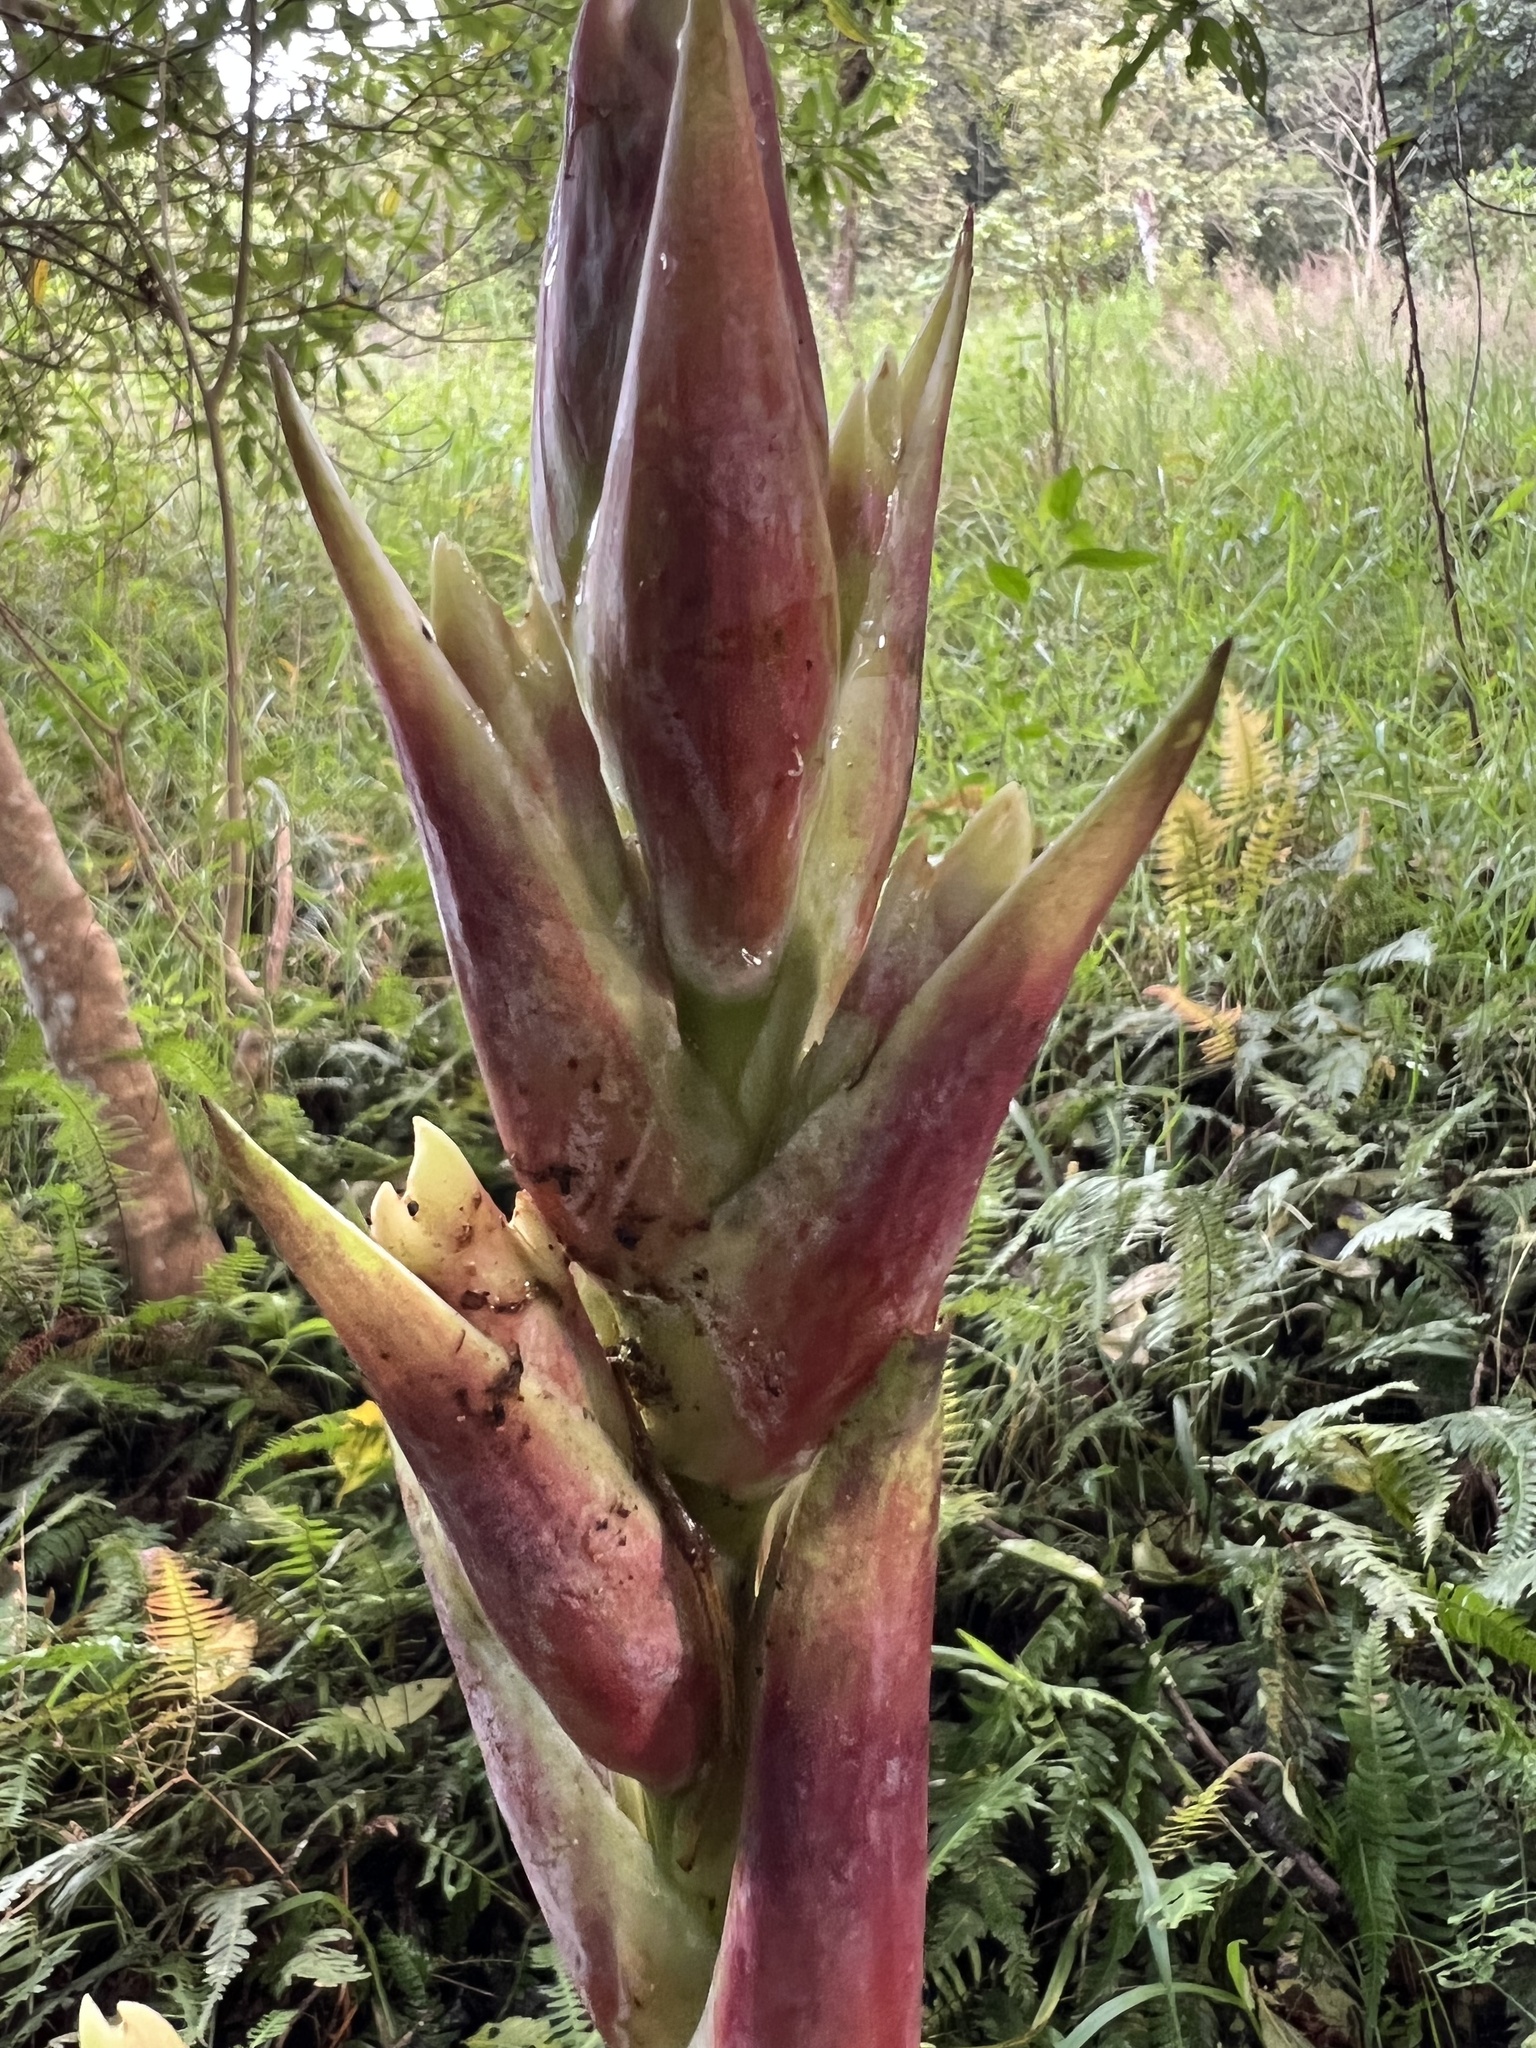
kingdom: Plantae
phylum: Tracheophyta
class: Liliopsida
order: Poales
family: Bromeliaceae
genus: Tillandsia
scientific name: Tillandsia fendleri
